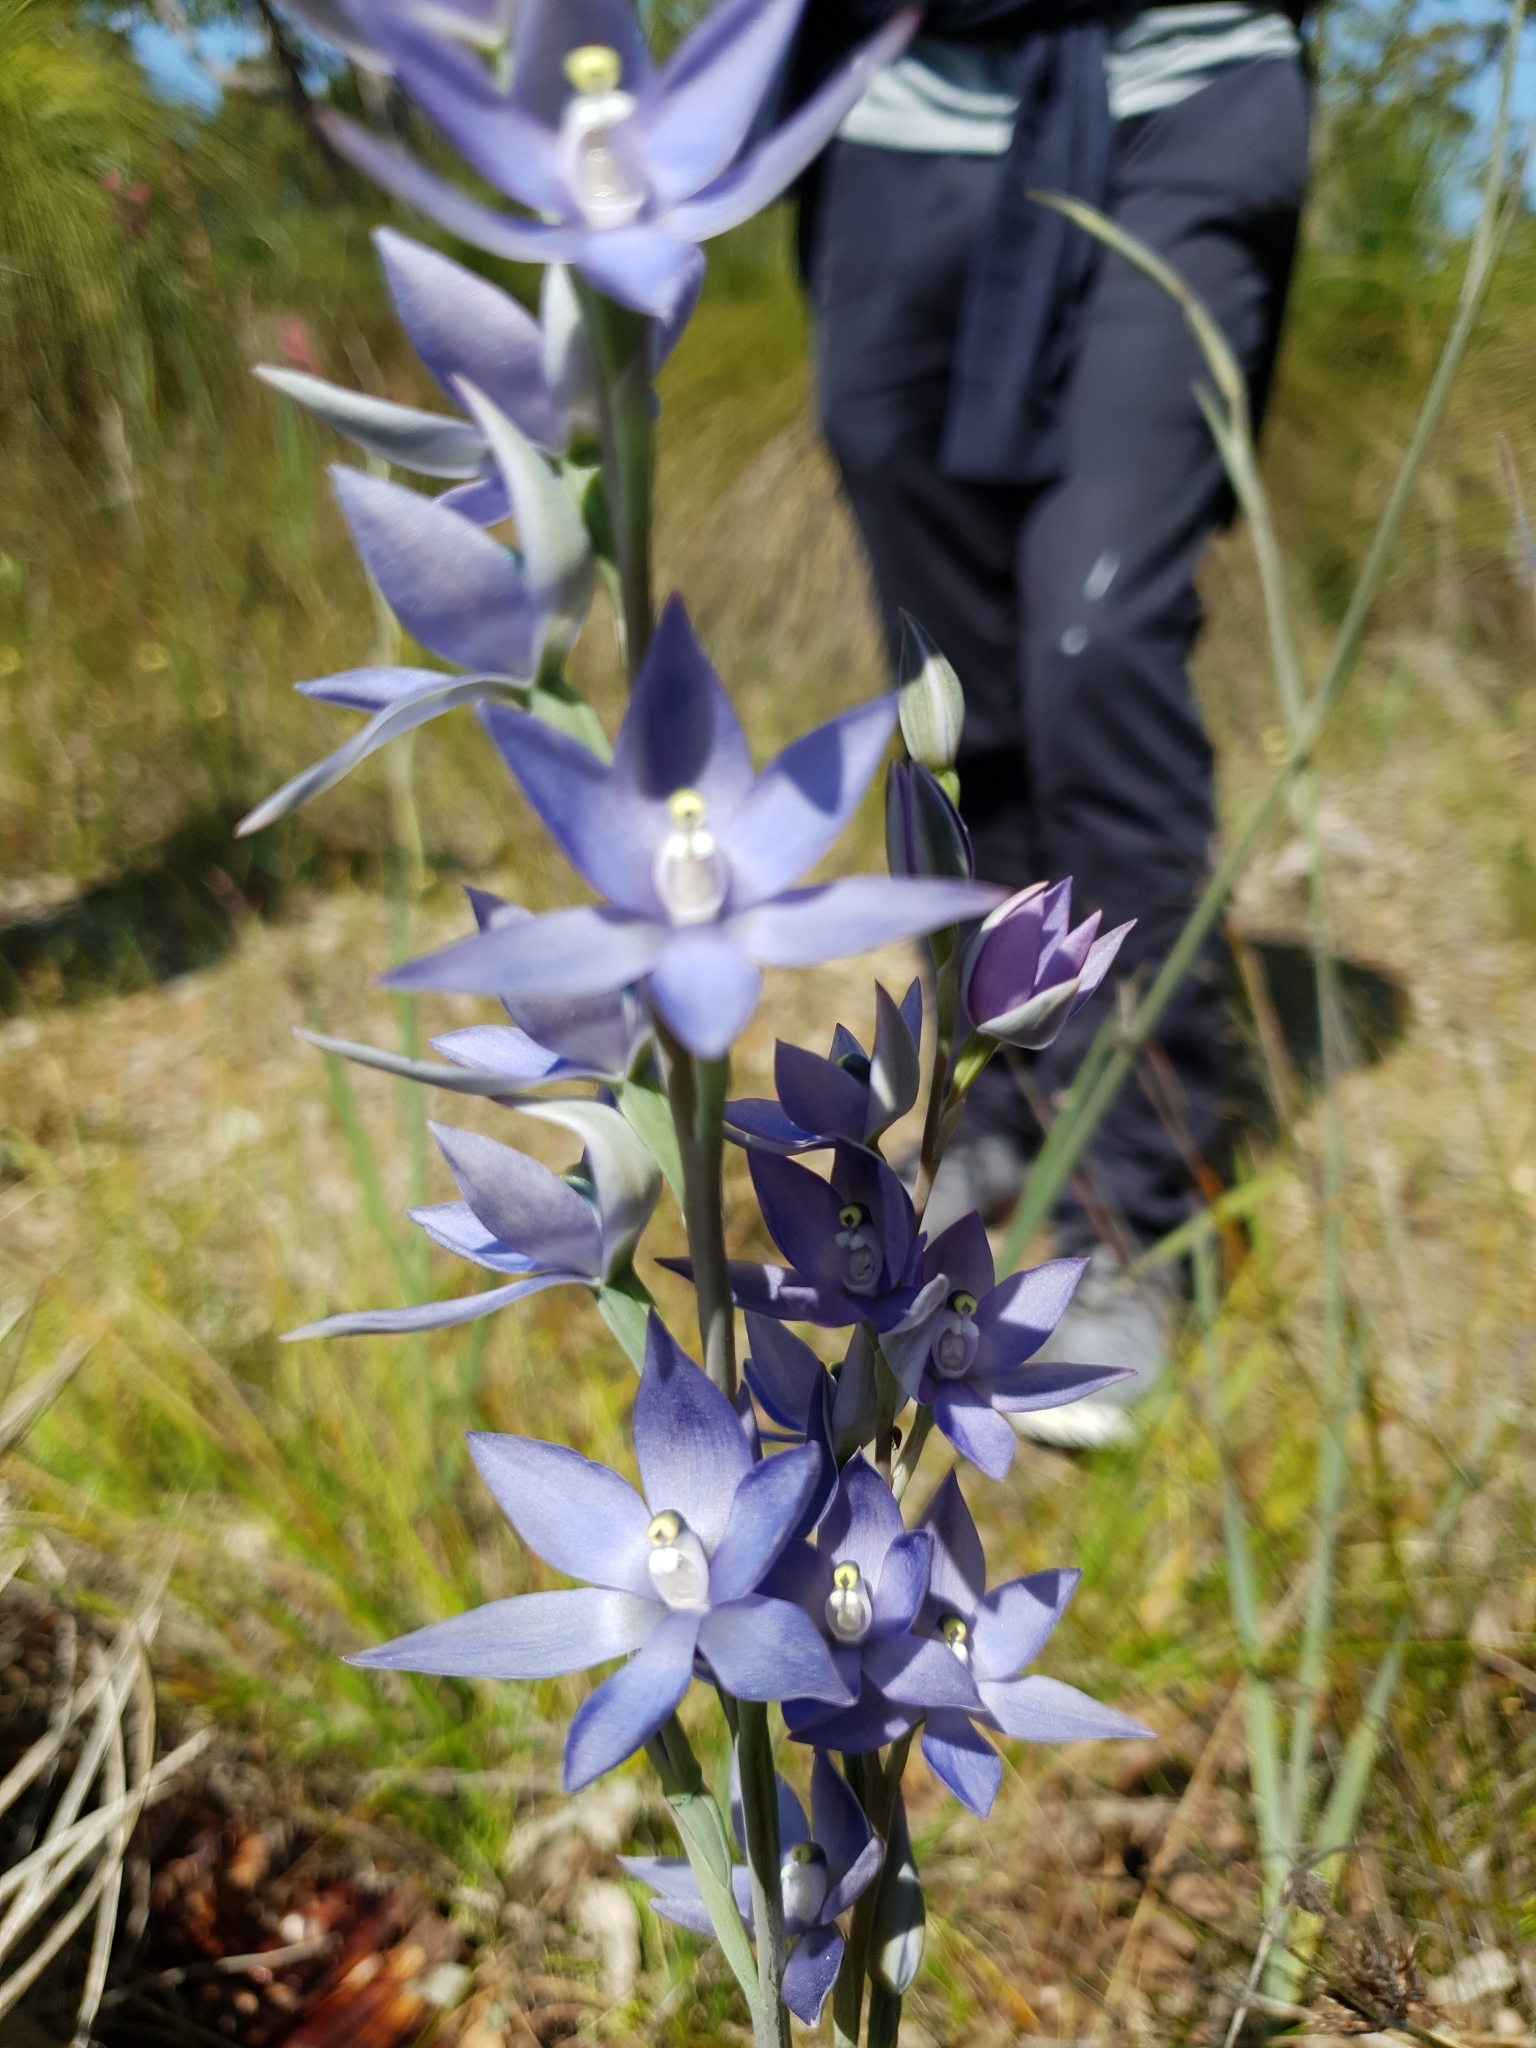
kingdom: Plantae
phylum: Tracheophyta
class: Liliopsida
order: Asparagales
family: Orchidaceae
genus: Thelymitra
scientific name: Thelymitra macrophylla
